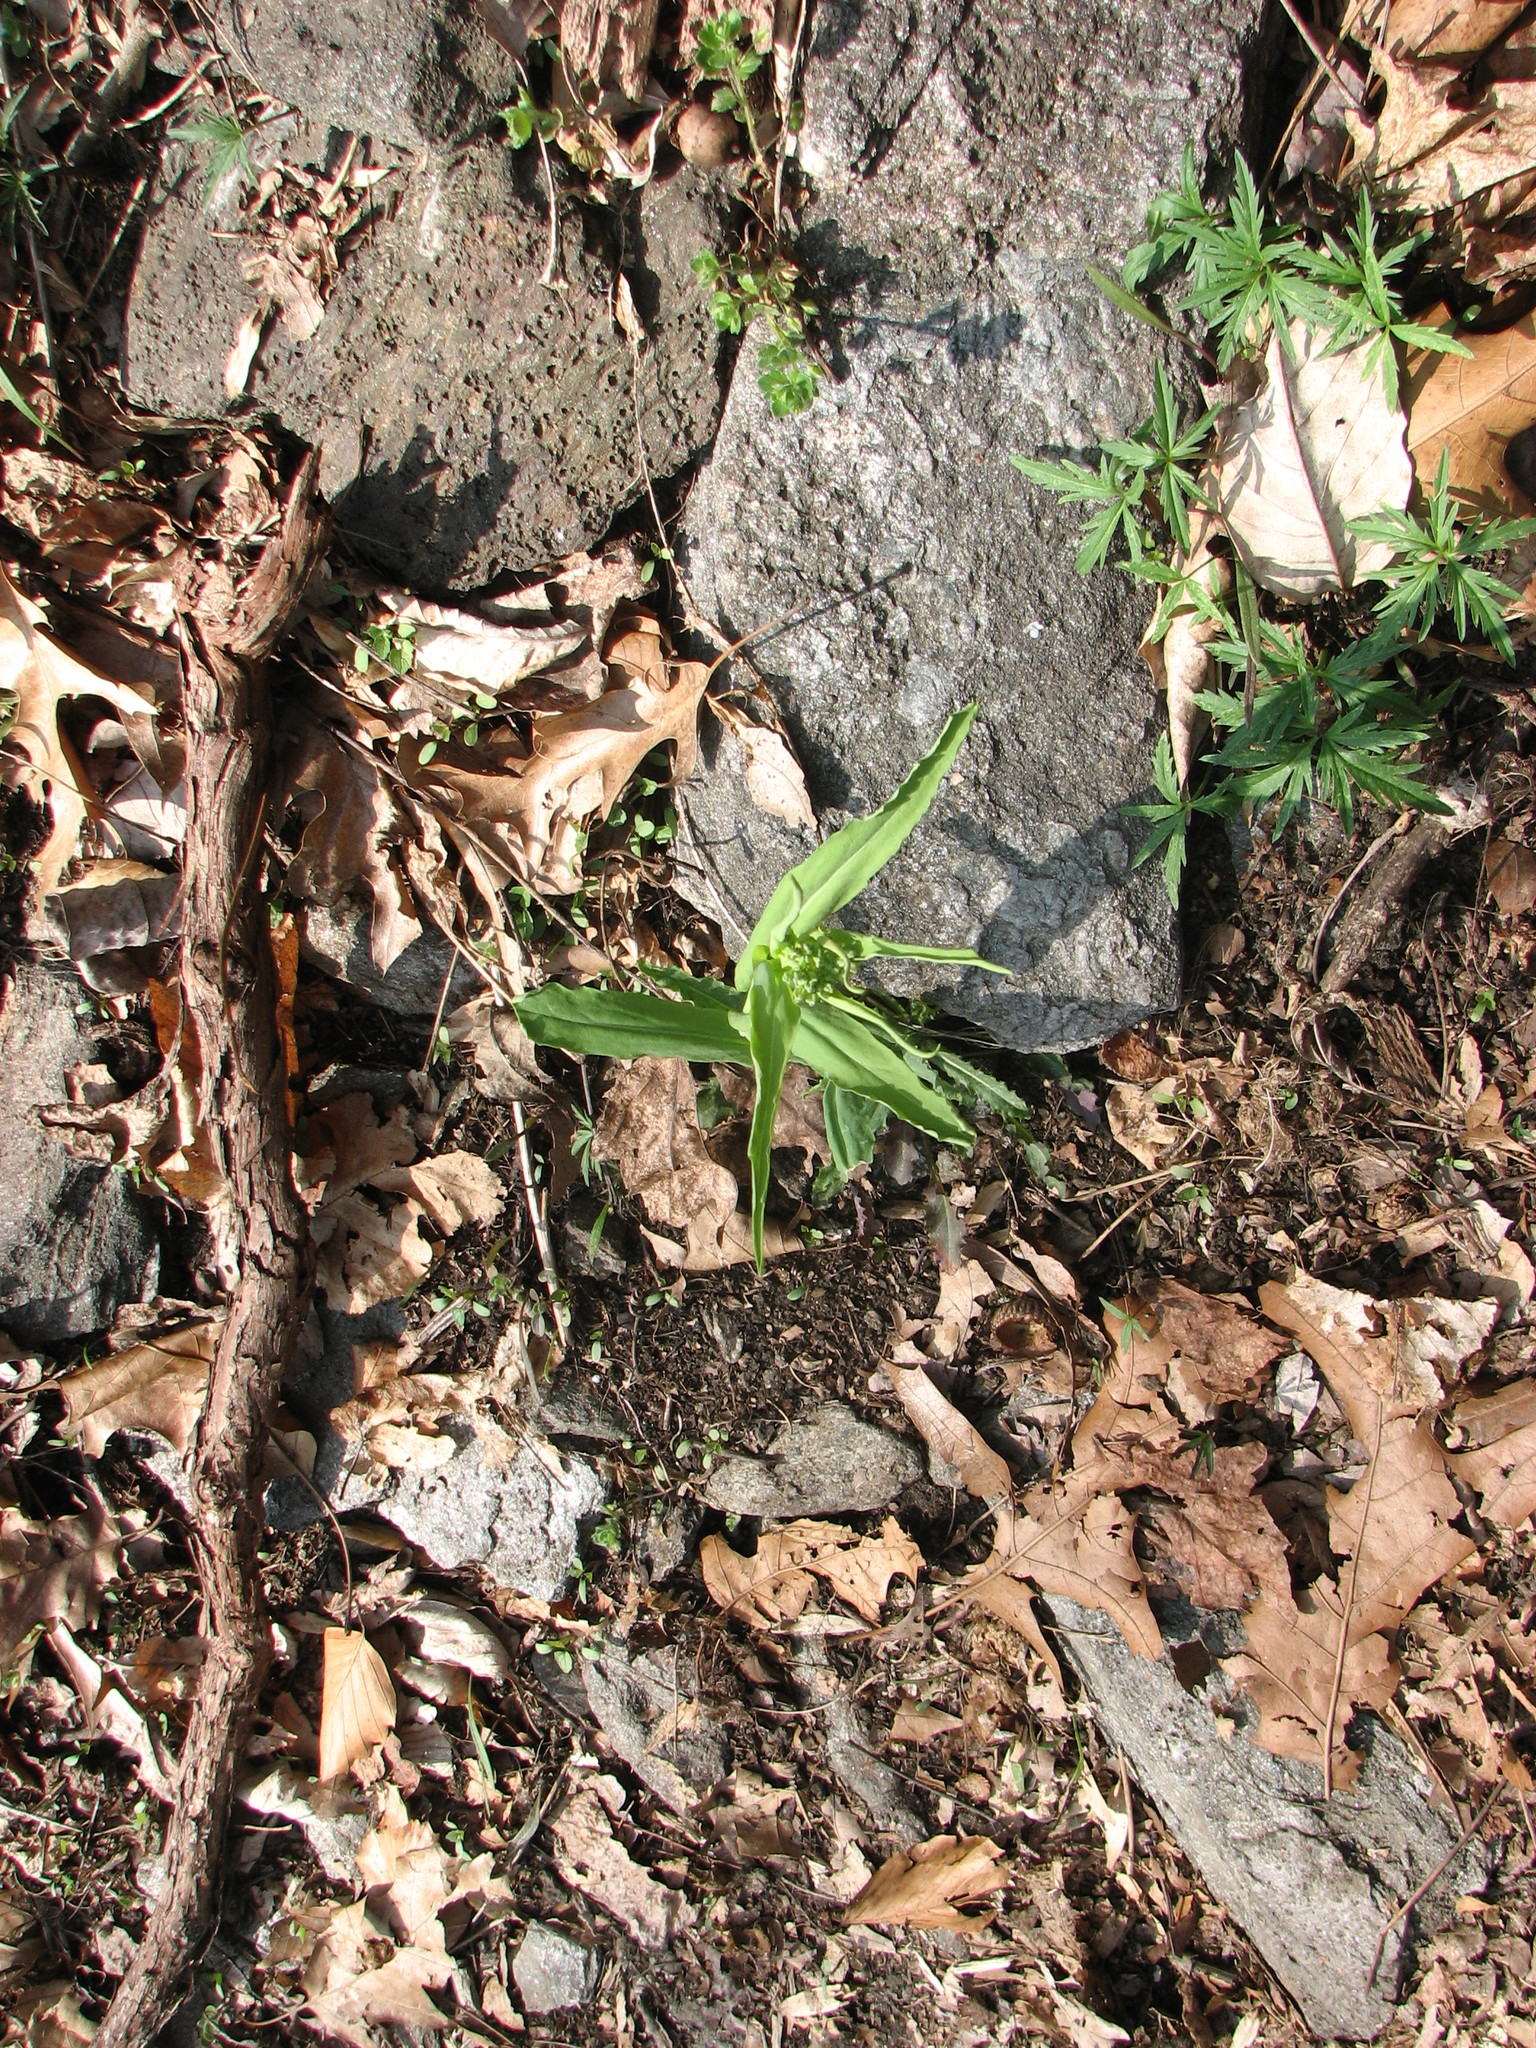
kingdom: Plantae
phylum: Tracheophyta
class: Magnoliopsida
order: Brassicales
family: Brassicaceae
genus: Borodinia
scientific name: Borodinia laevigata
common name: Smooth rockcress
